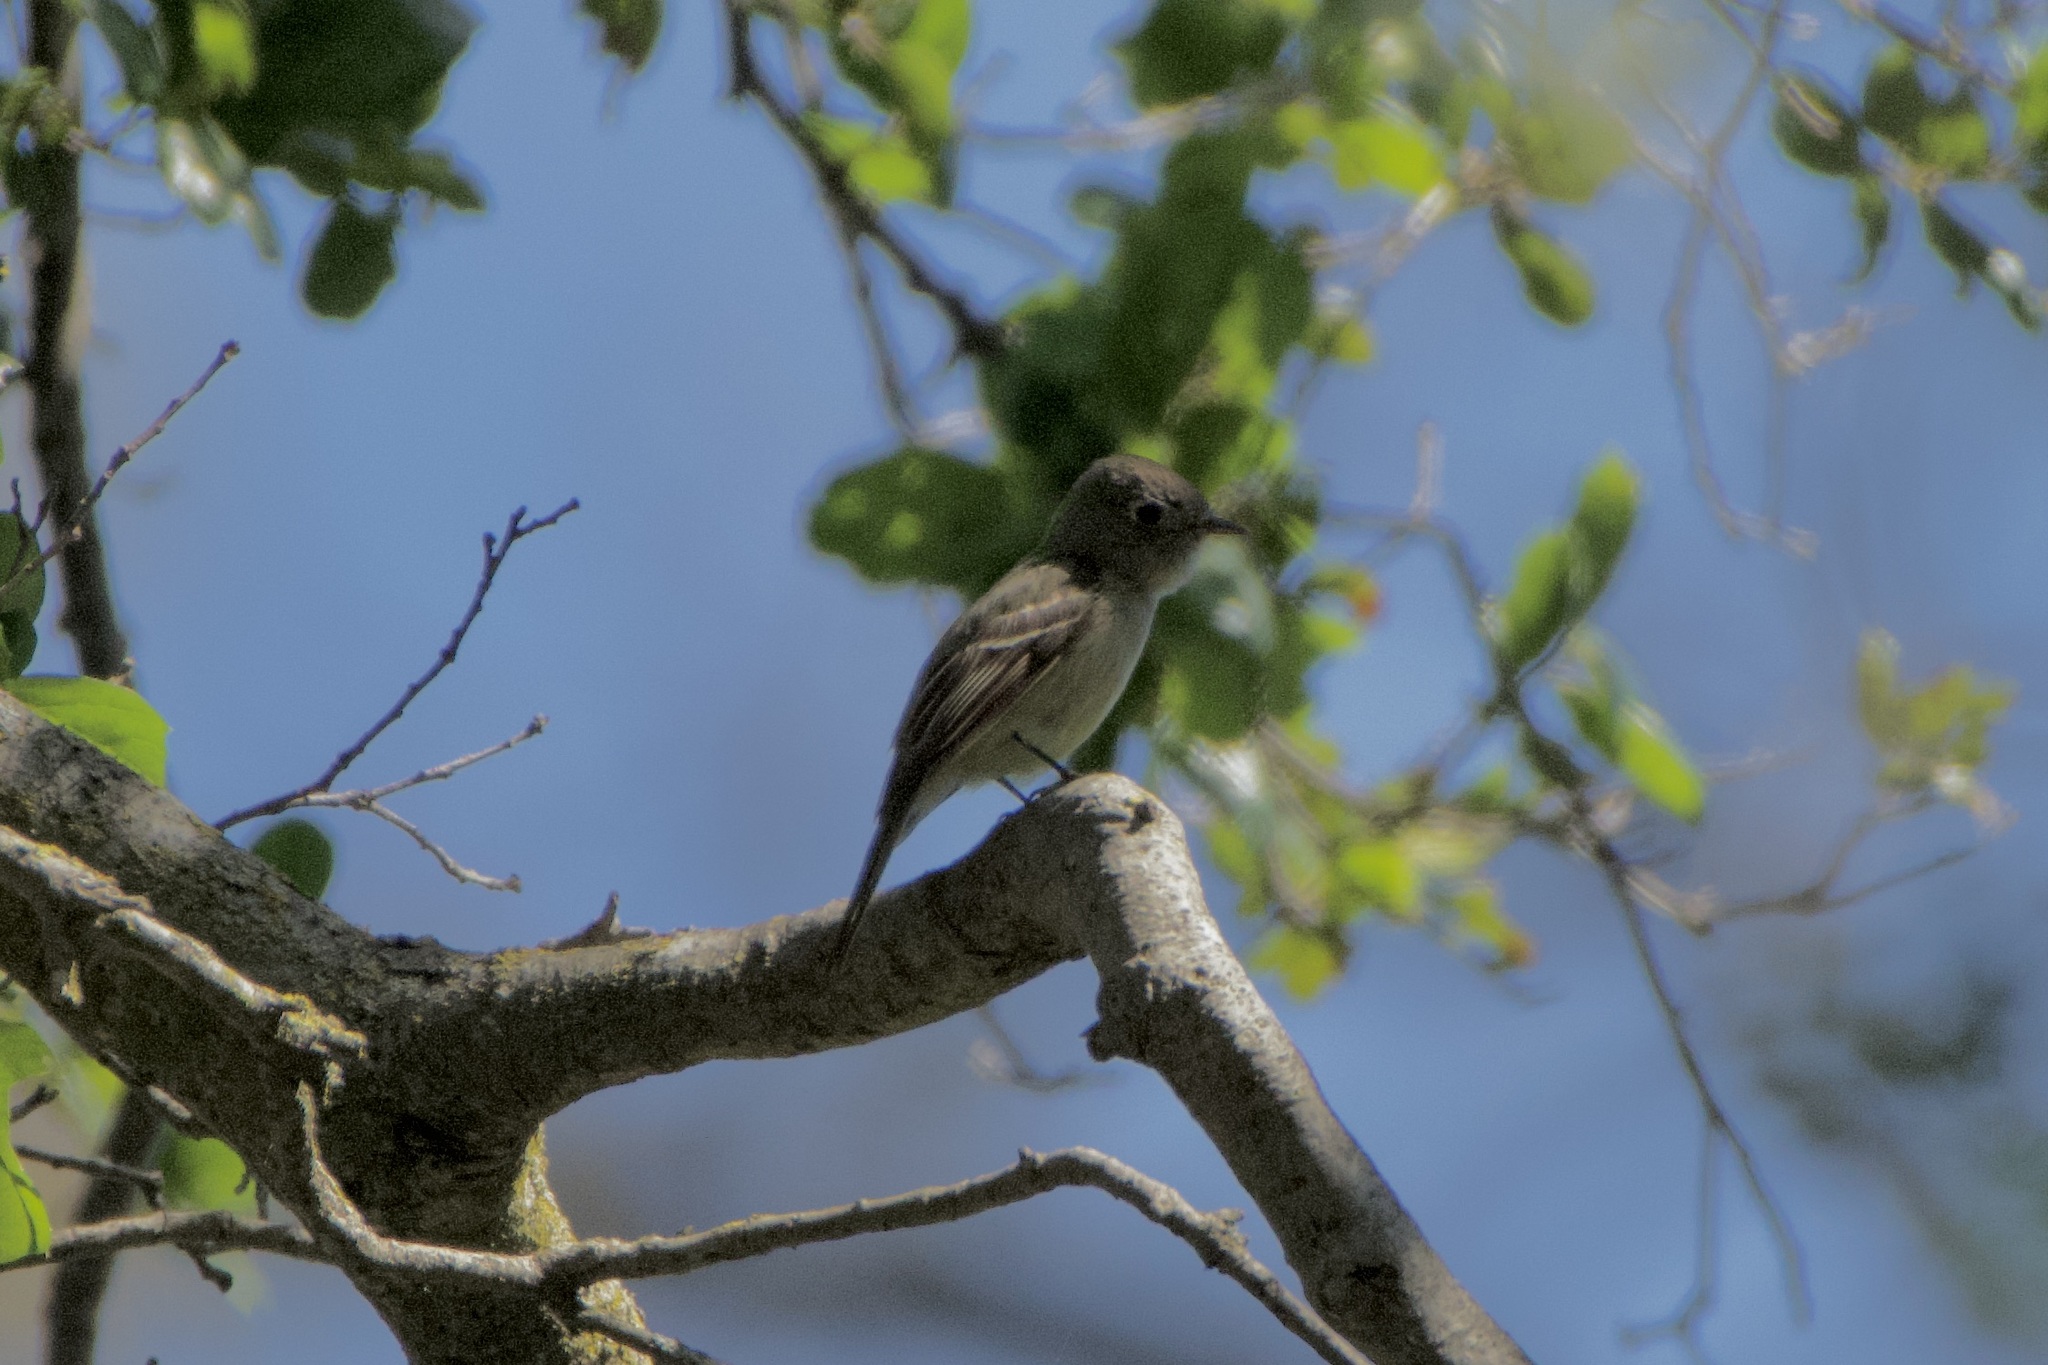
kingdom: Animalia
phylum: Chordata
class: Aves
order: Passeriformes
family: Tyrannidae
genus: Empidonax
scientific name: Empidonax hammondii
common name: Hammond's flycatcher
